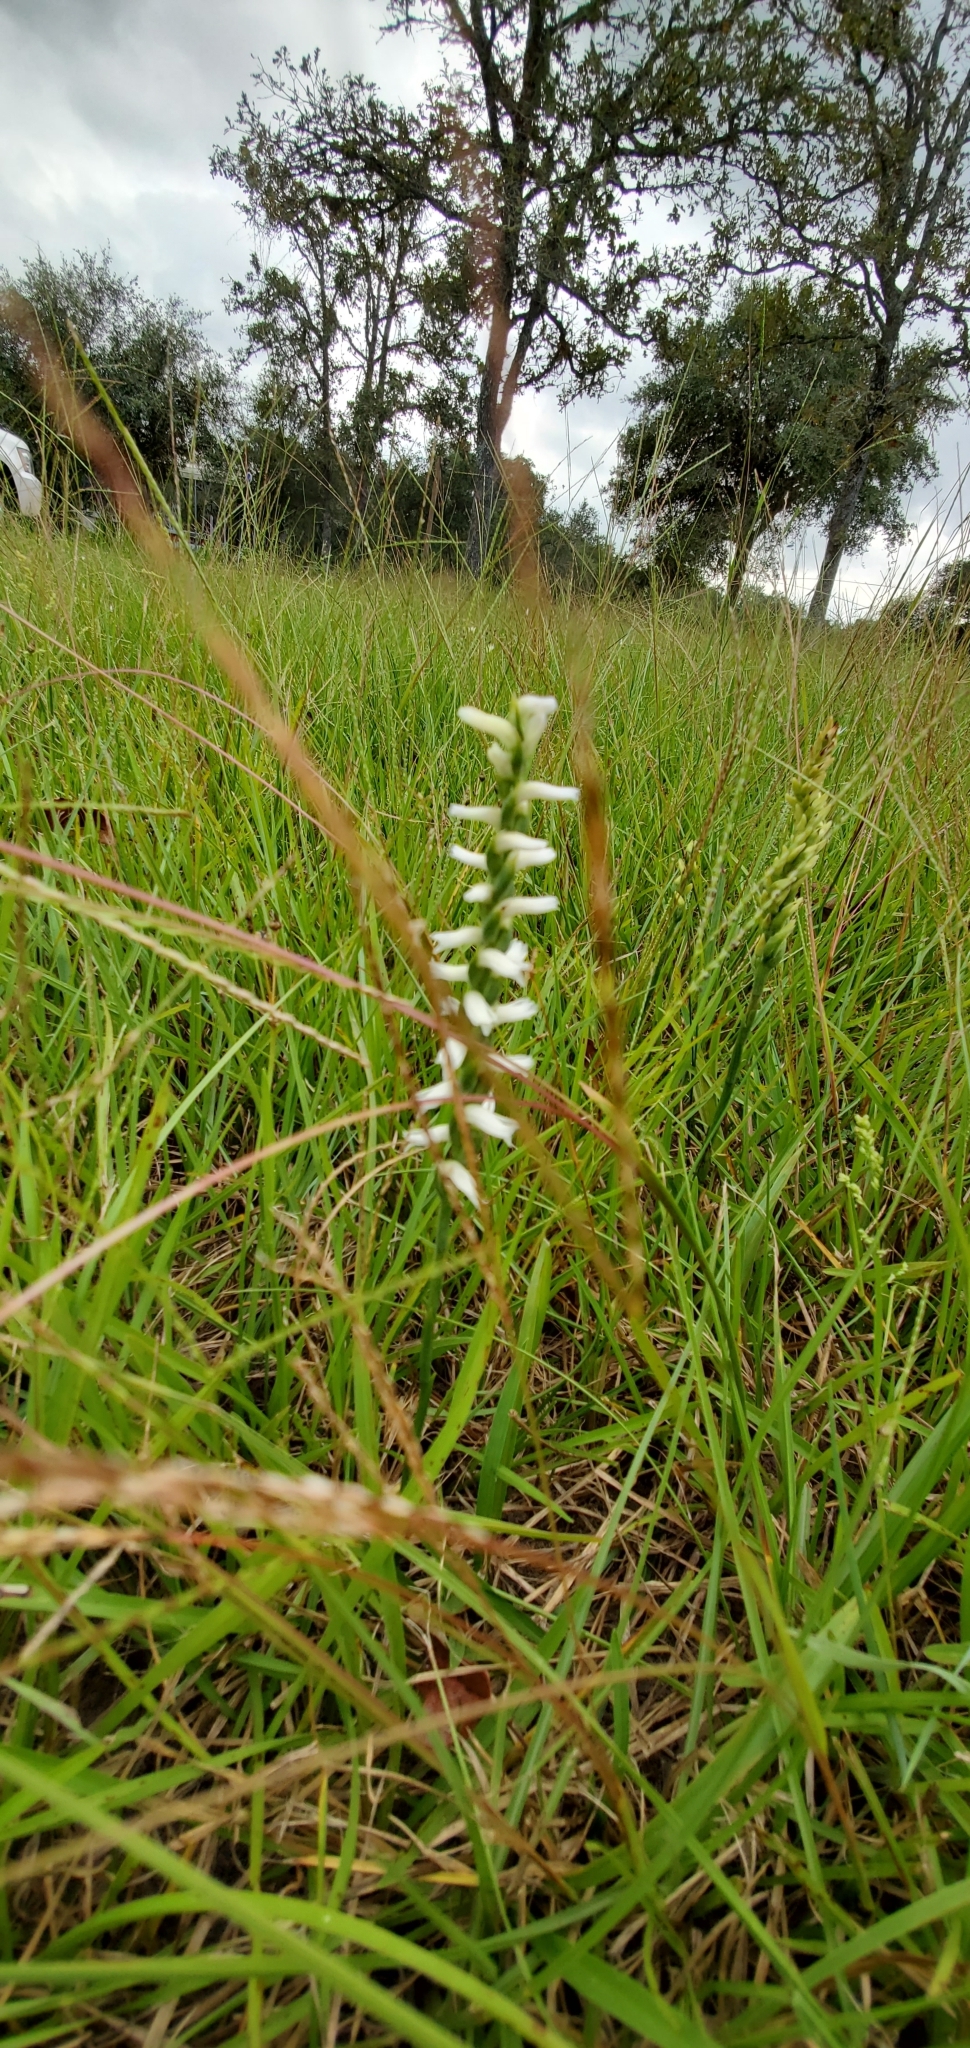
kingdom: Plantae
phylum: Tracheophyta
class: Liliopsida
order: Asparagales
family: Orchidaceae
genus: Spiranthes
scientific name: Spiranthes cernua
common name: Dropping ladies'-tresses
